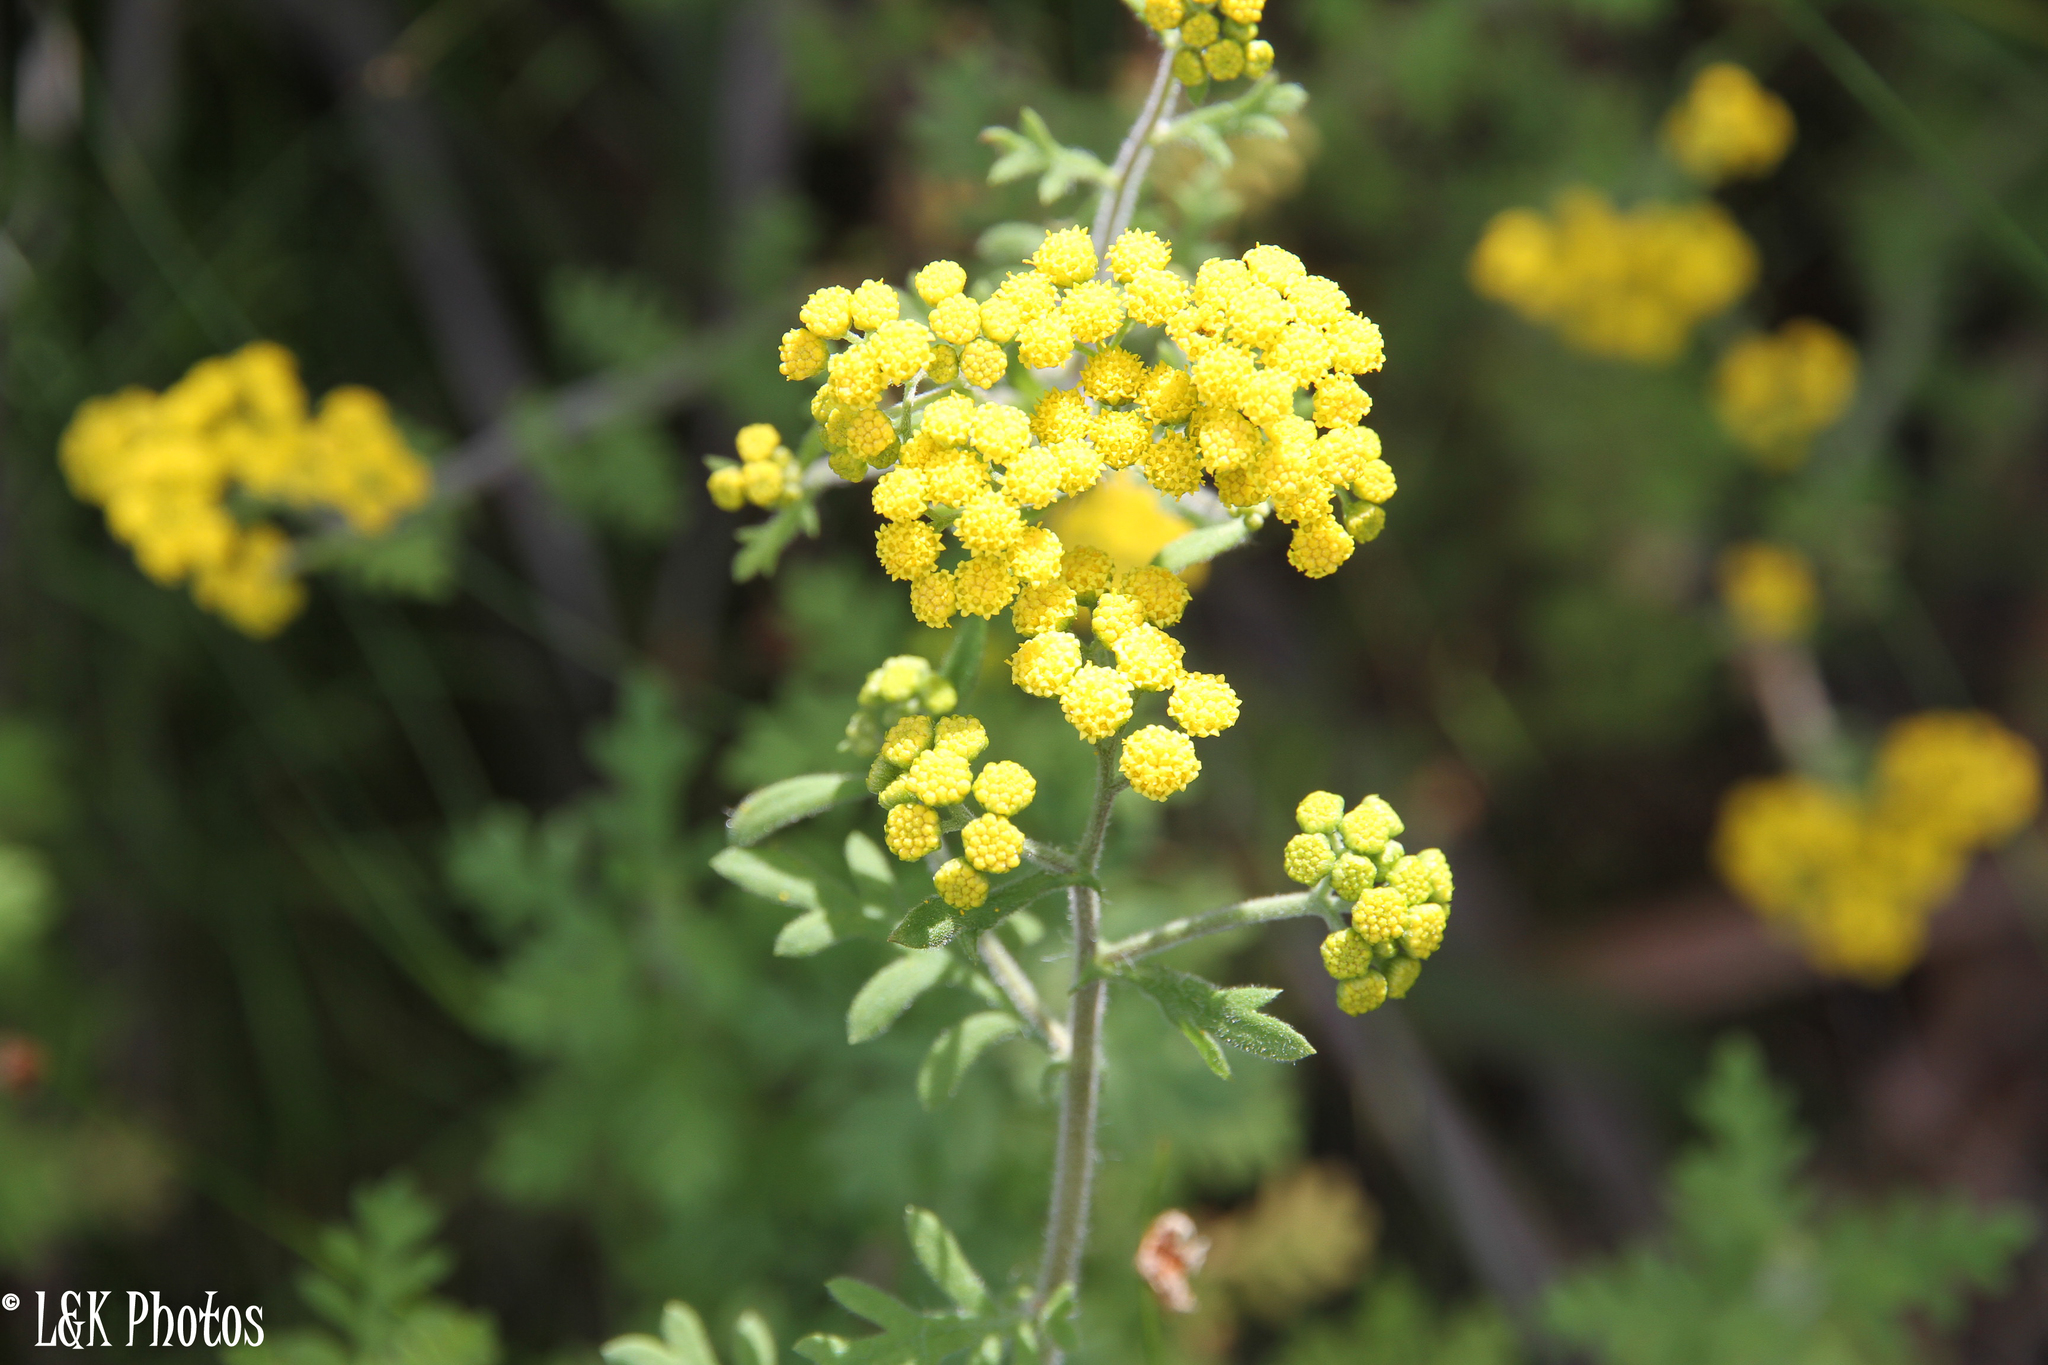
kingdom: Plantae
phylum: Tracheophyta
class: Magnoliopsida
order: Asterales
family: Asteraceae
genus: Hippia
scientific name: Hippia frutescens
